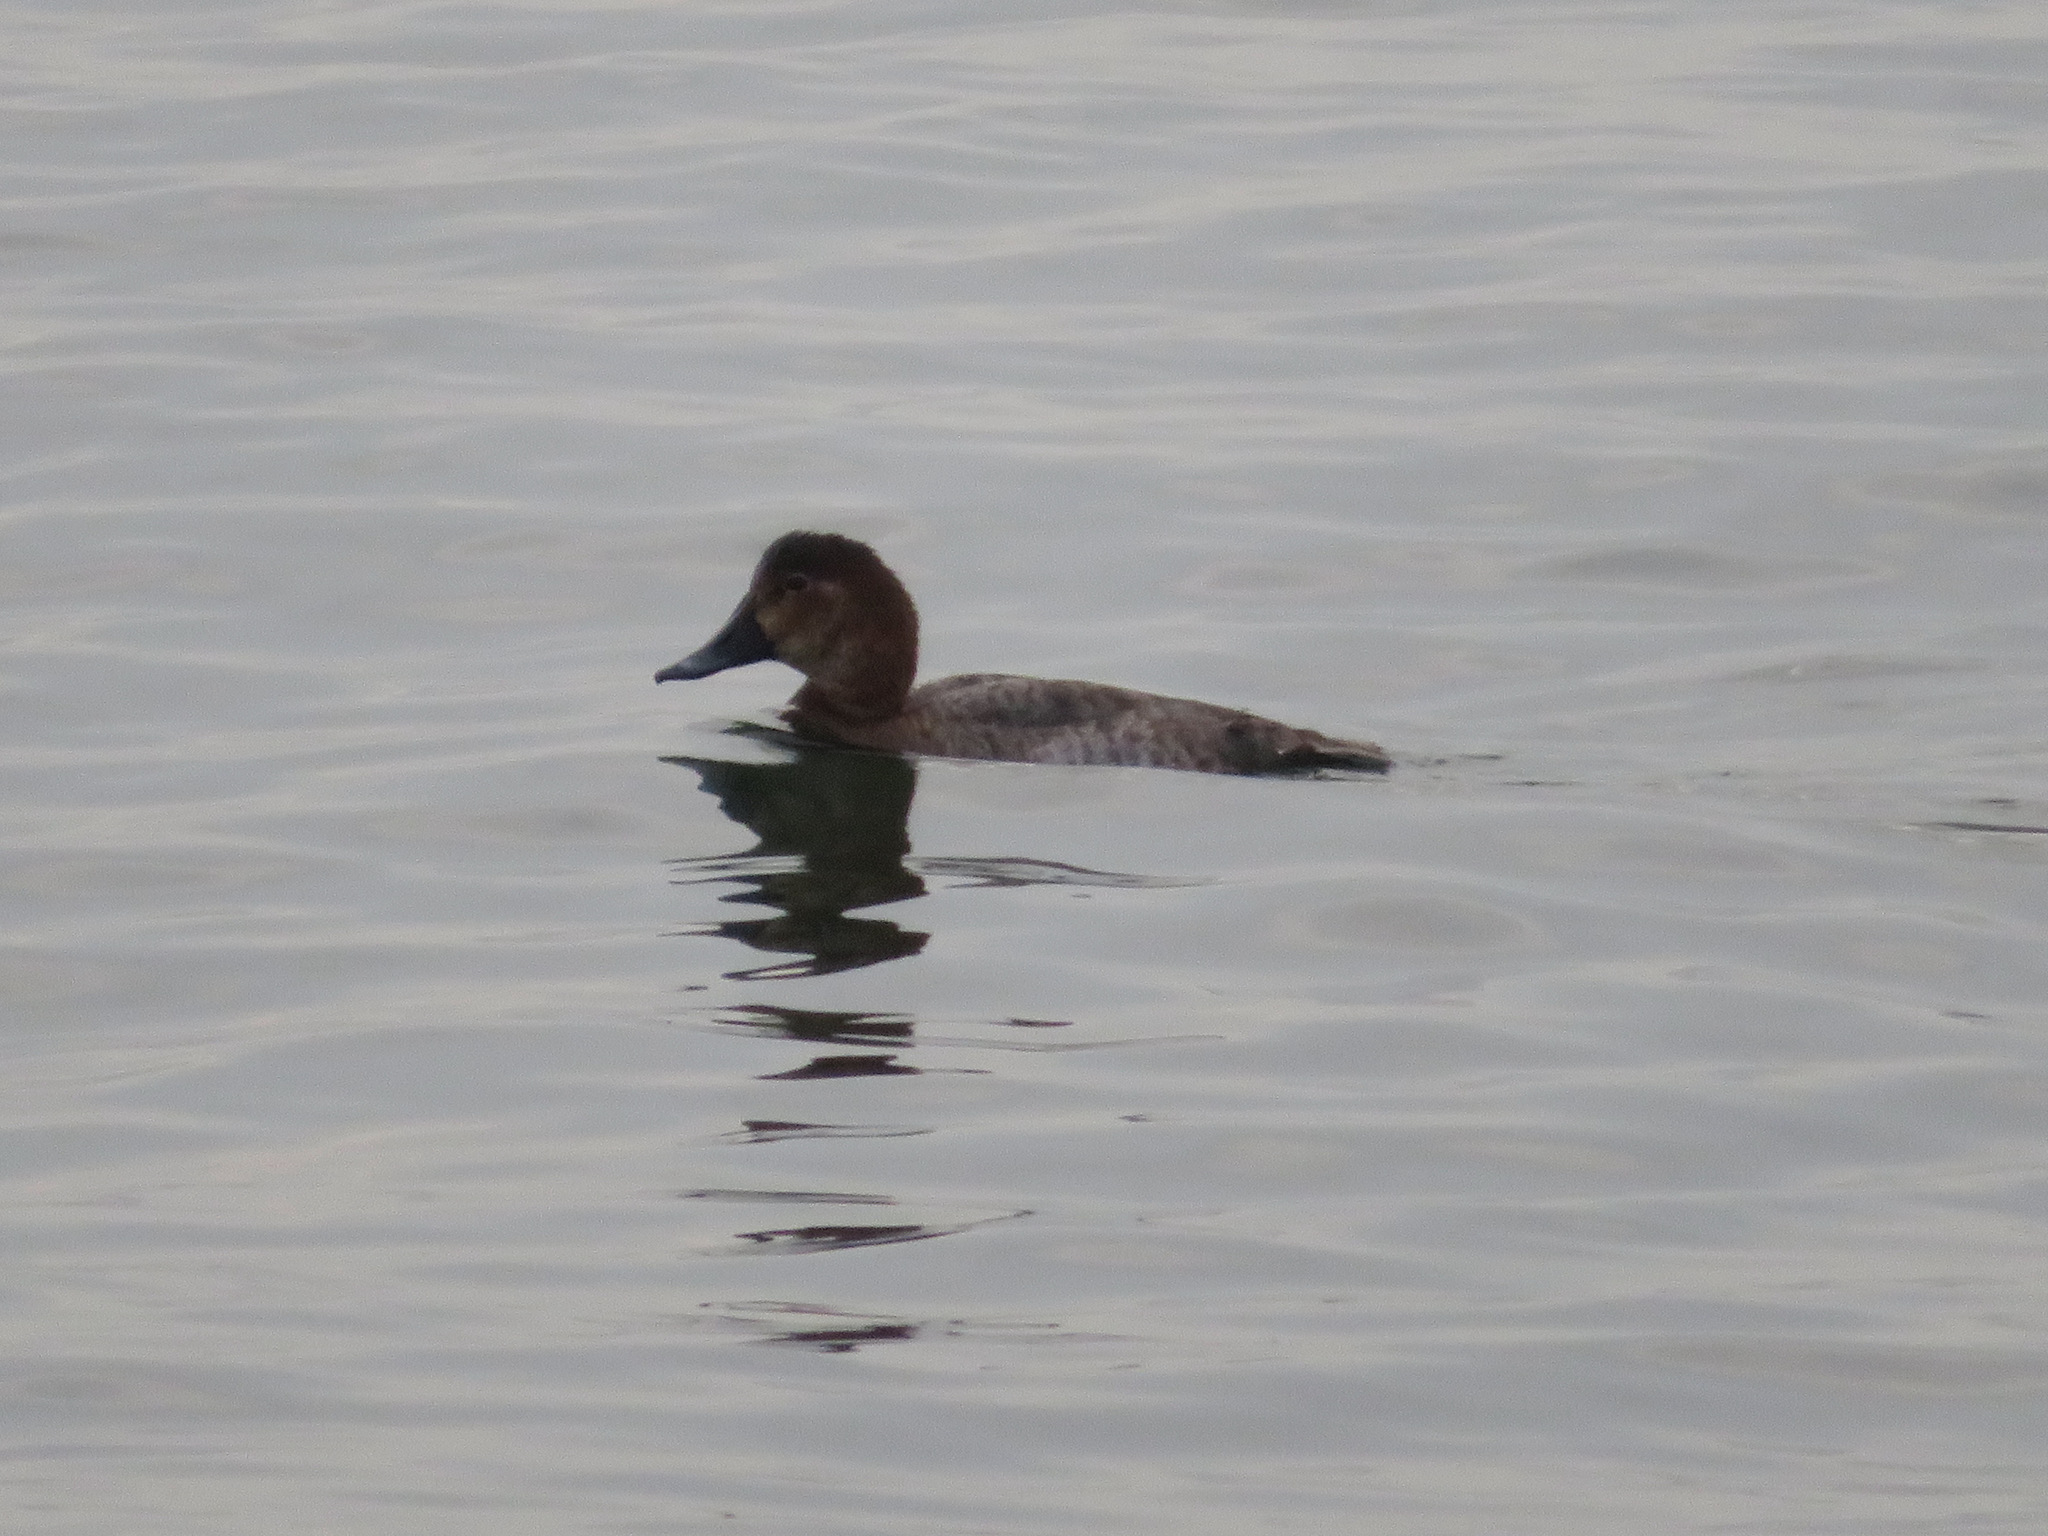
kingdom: Animalia
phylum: Chordata
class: Aves
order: Anseriformes
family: Anatidae
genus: Aythya
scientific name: Aythya ferina
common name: Common pochard
